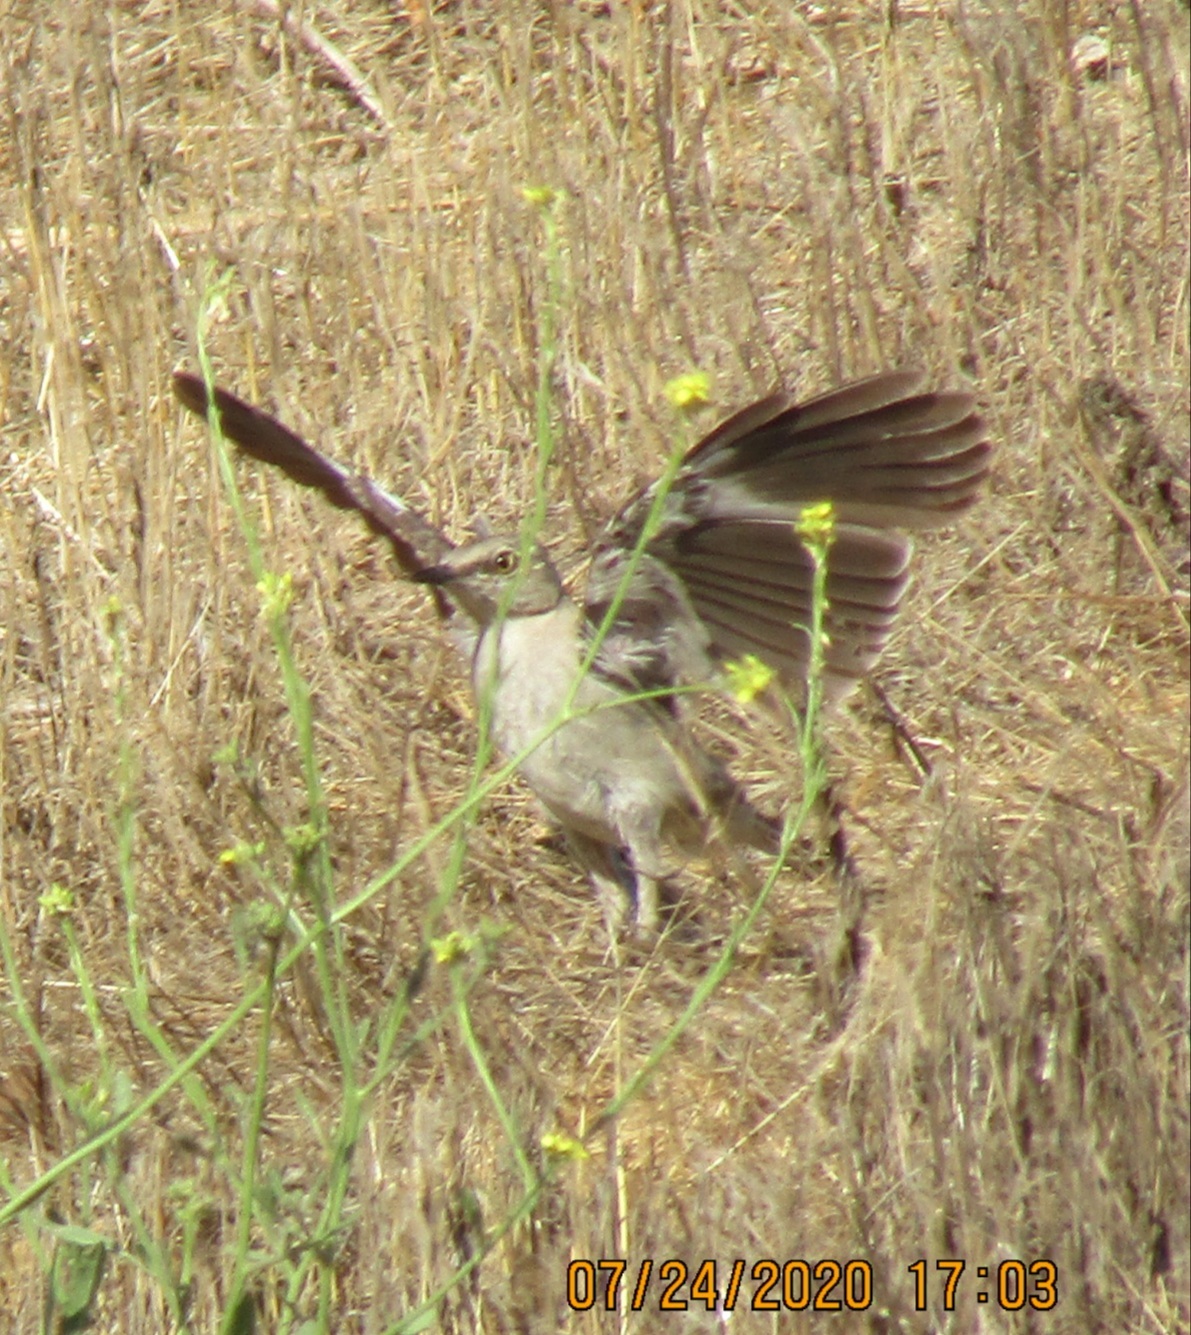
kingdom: Animalia
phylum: Chordata
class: Aves
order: Passeriformes
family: Mimidae
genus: Mimus
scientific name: Mimus polyglottos
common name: Northern mockingbird
